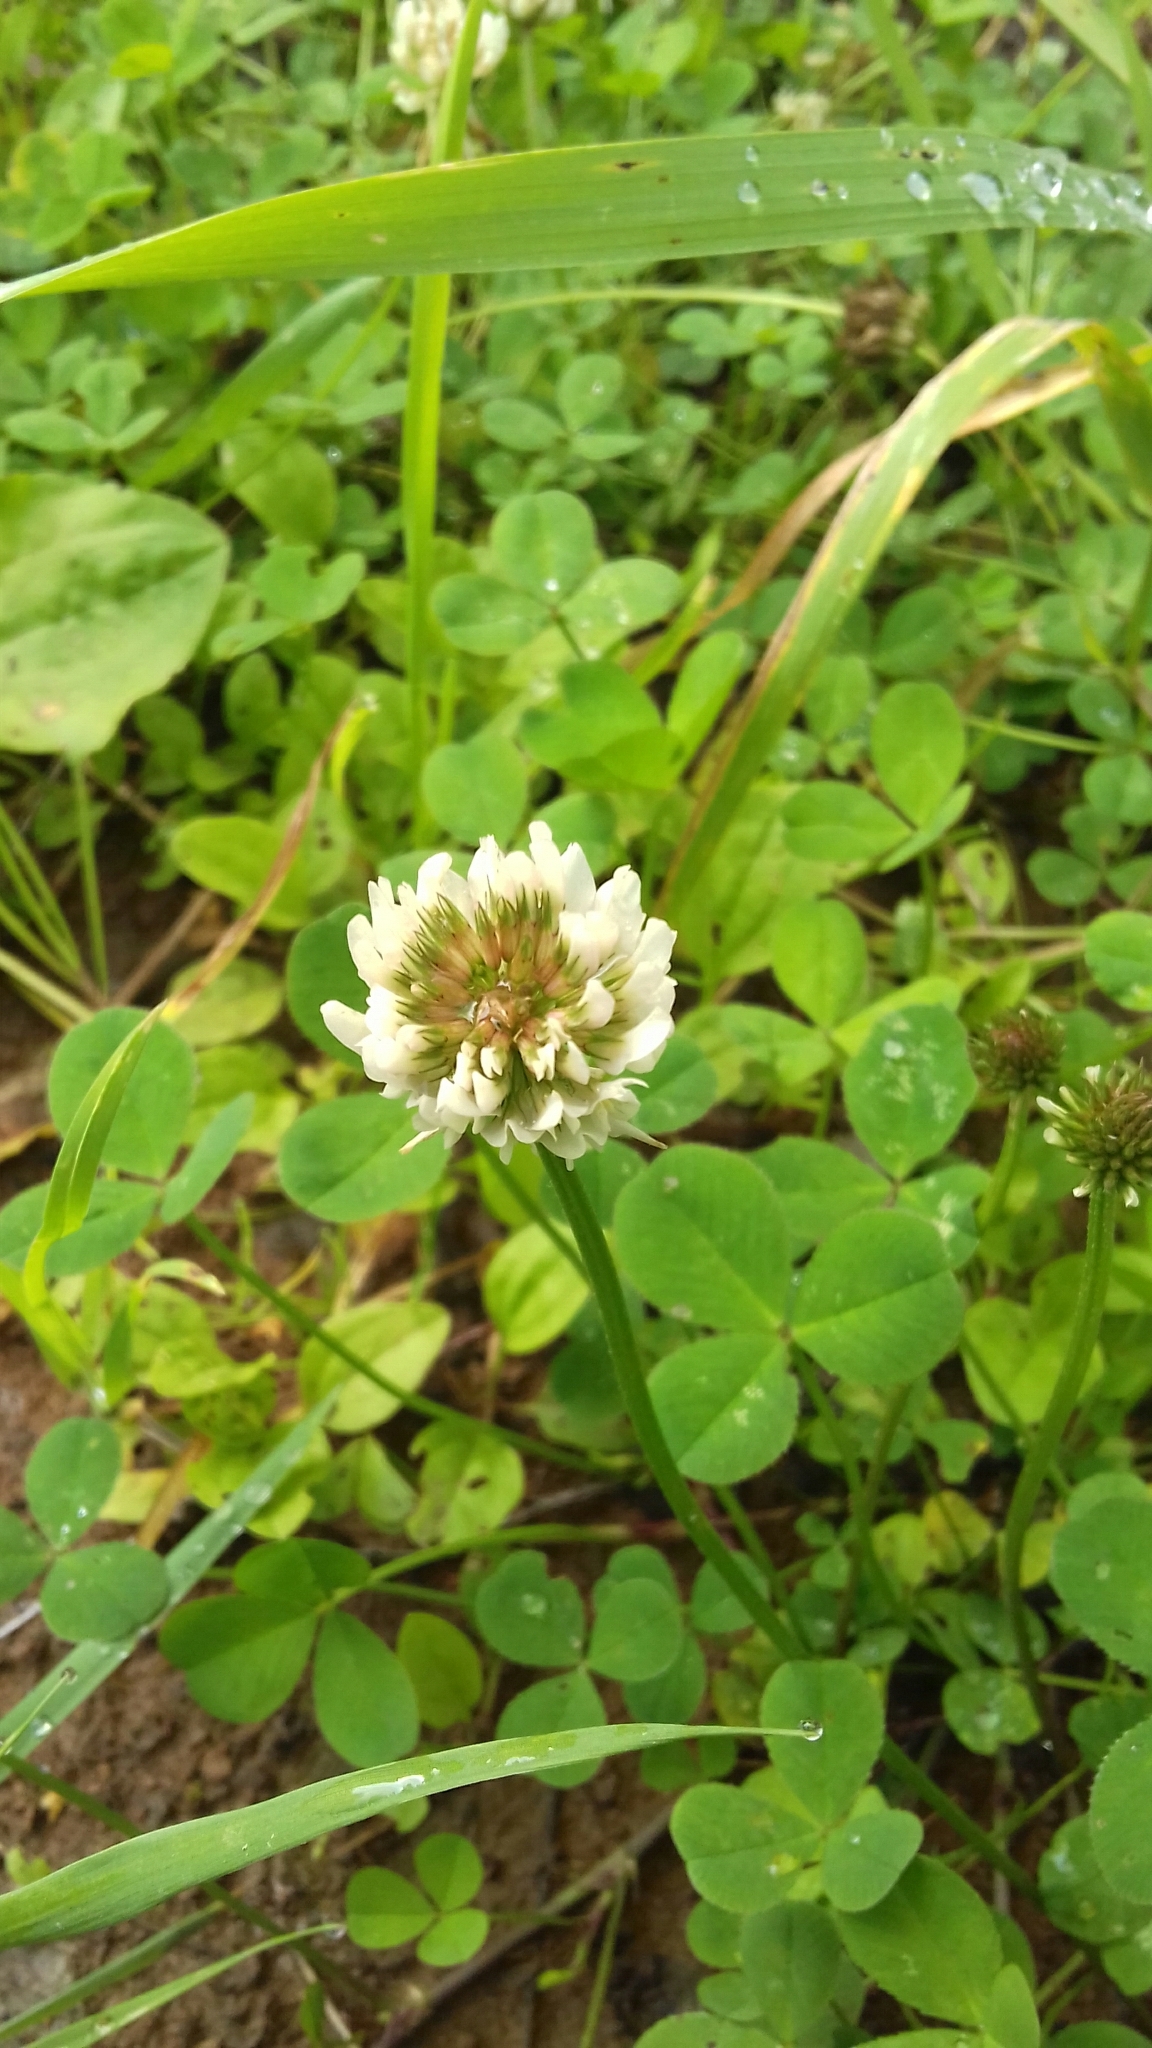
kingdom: Plantae
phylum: Tracheophyta
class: Magnoliopsida
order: Fabales
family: Fabaceae
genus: Trifolium
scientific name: Trifolium repens
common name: White clover
